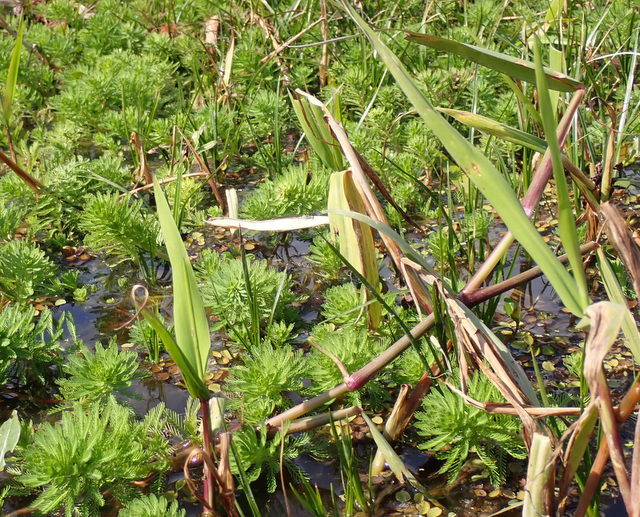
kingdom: Plantae
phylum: Tracheophyta
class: Magnoliopsida
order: Saxifragales
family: Haloragaceae
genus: Myriophyllum
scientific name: Myriophyllum aquaticum
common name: Parrot's feather
